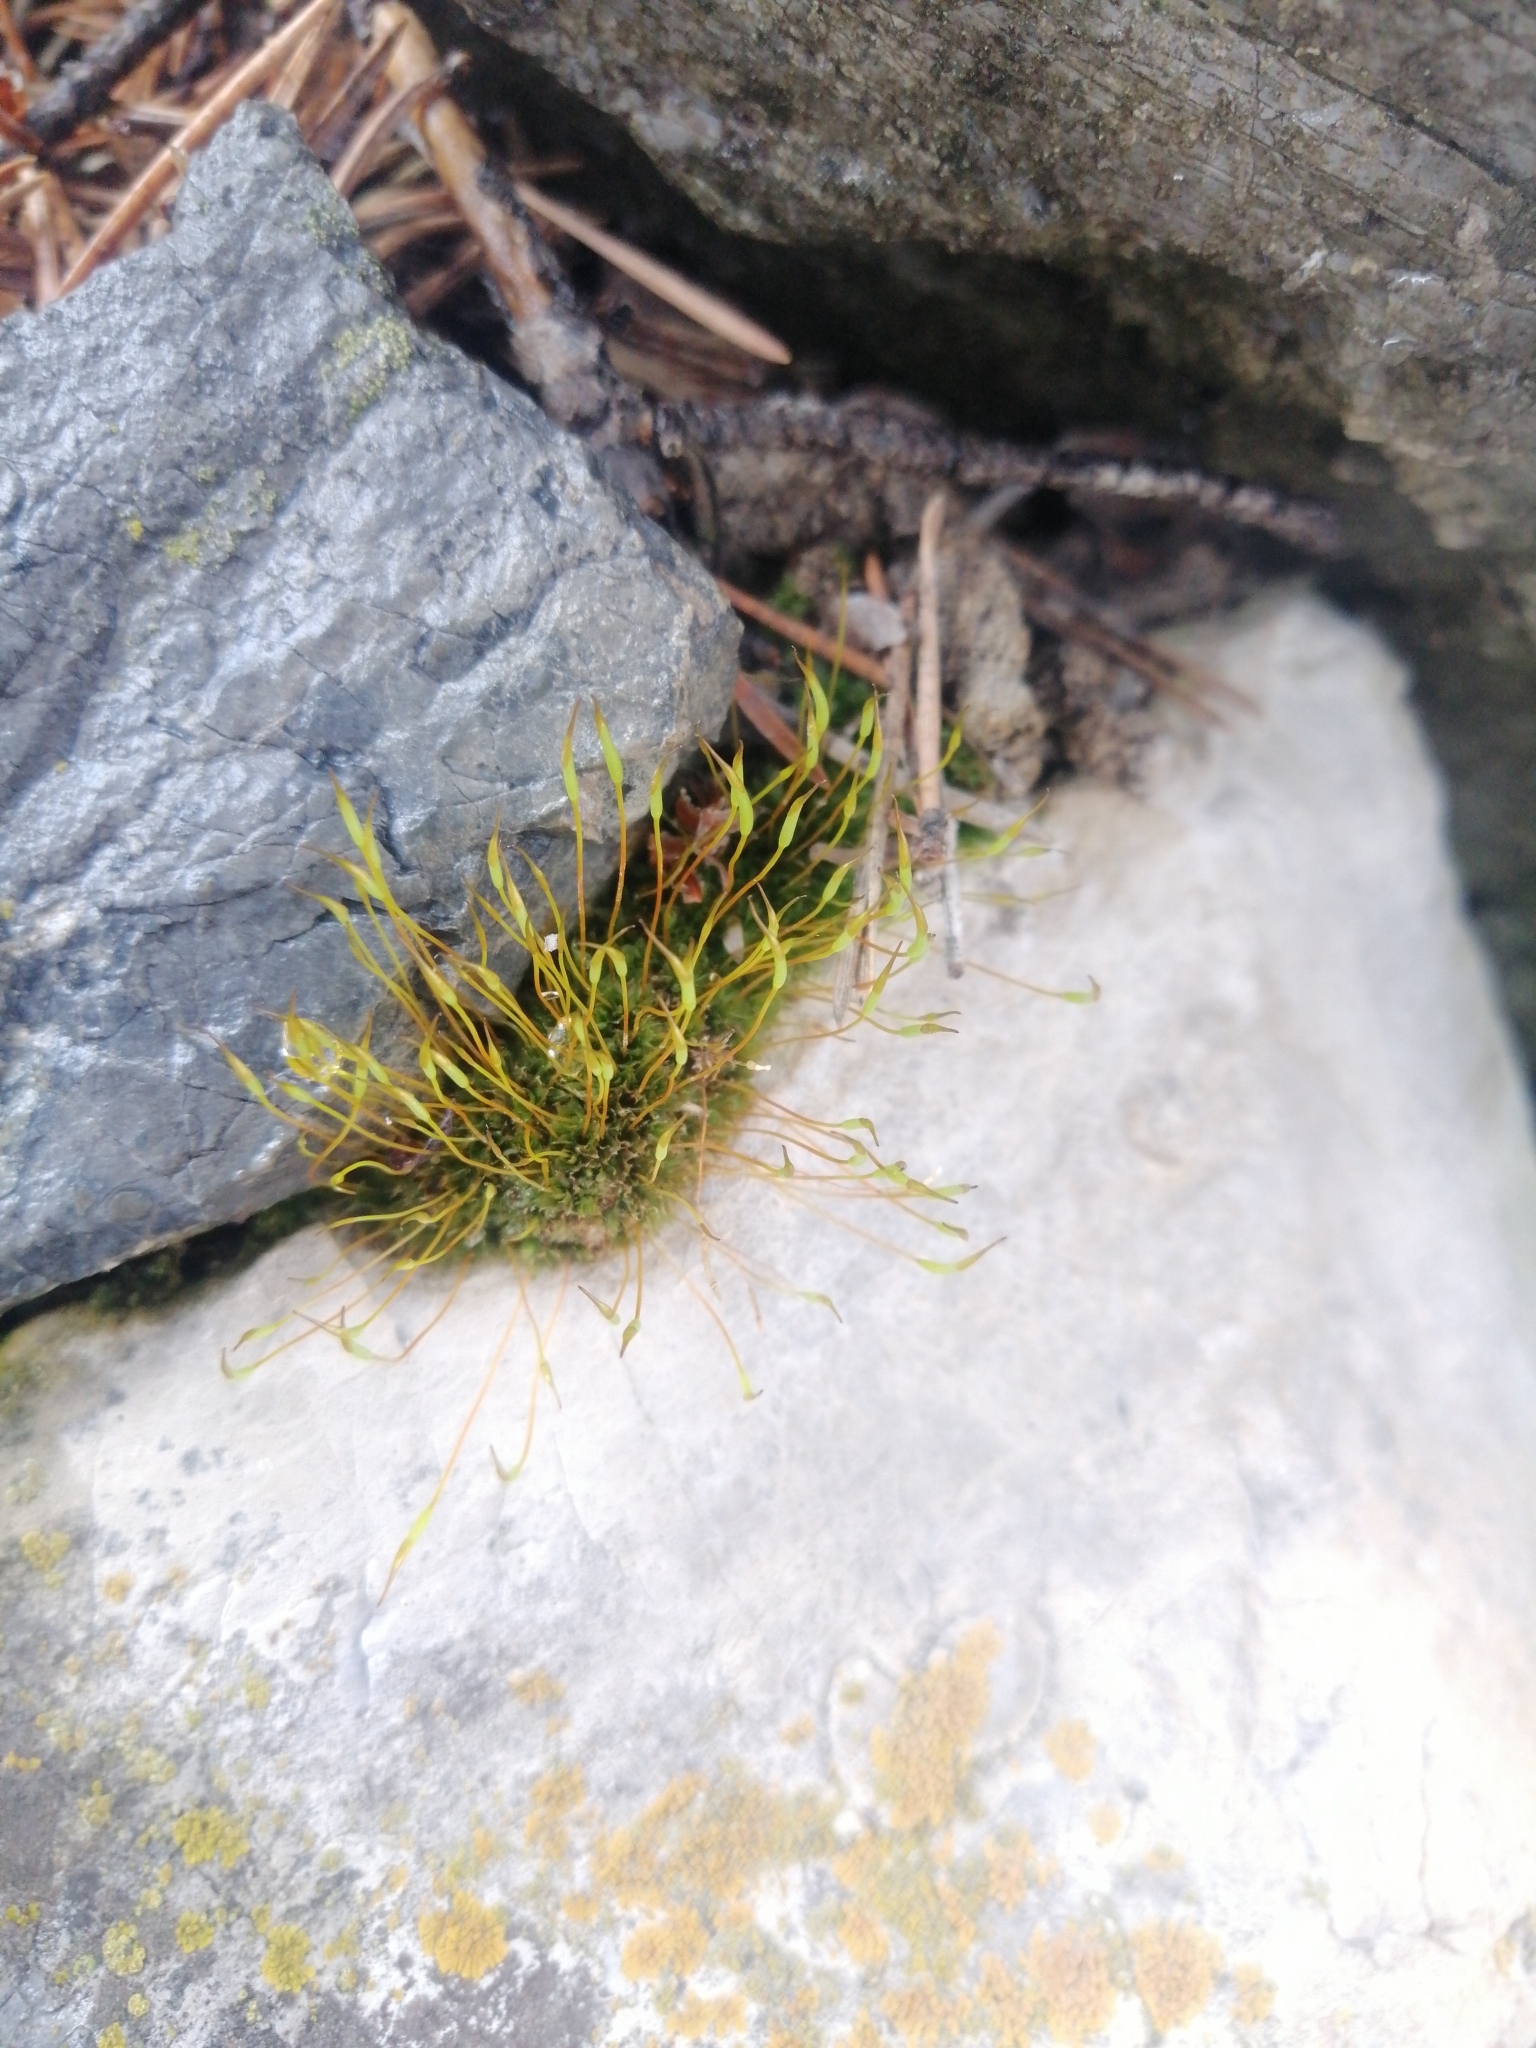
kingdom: Plantae
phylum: Bryophyta
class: Bryopsida
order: Pottiales
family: Pottiaceae
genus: Tortula
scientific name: Tortula muralis
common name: Wall screw-moss
